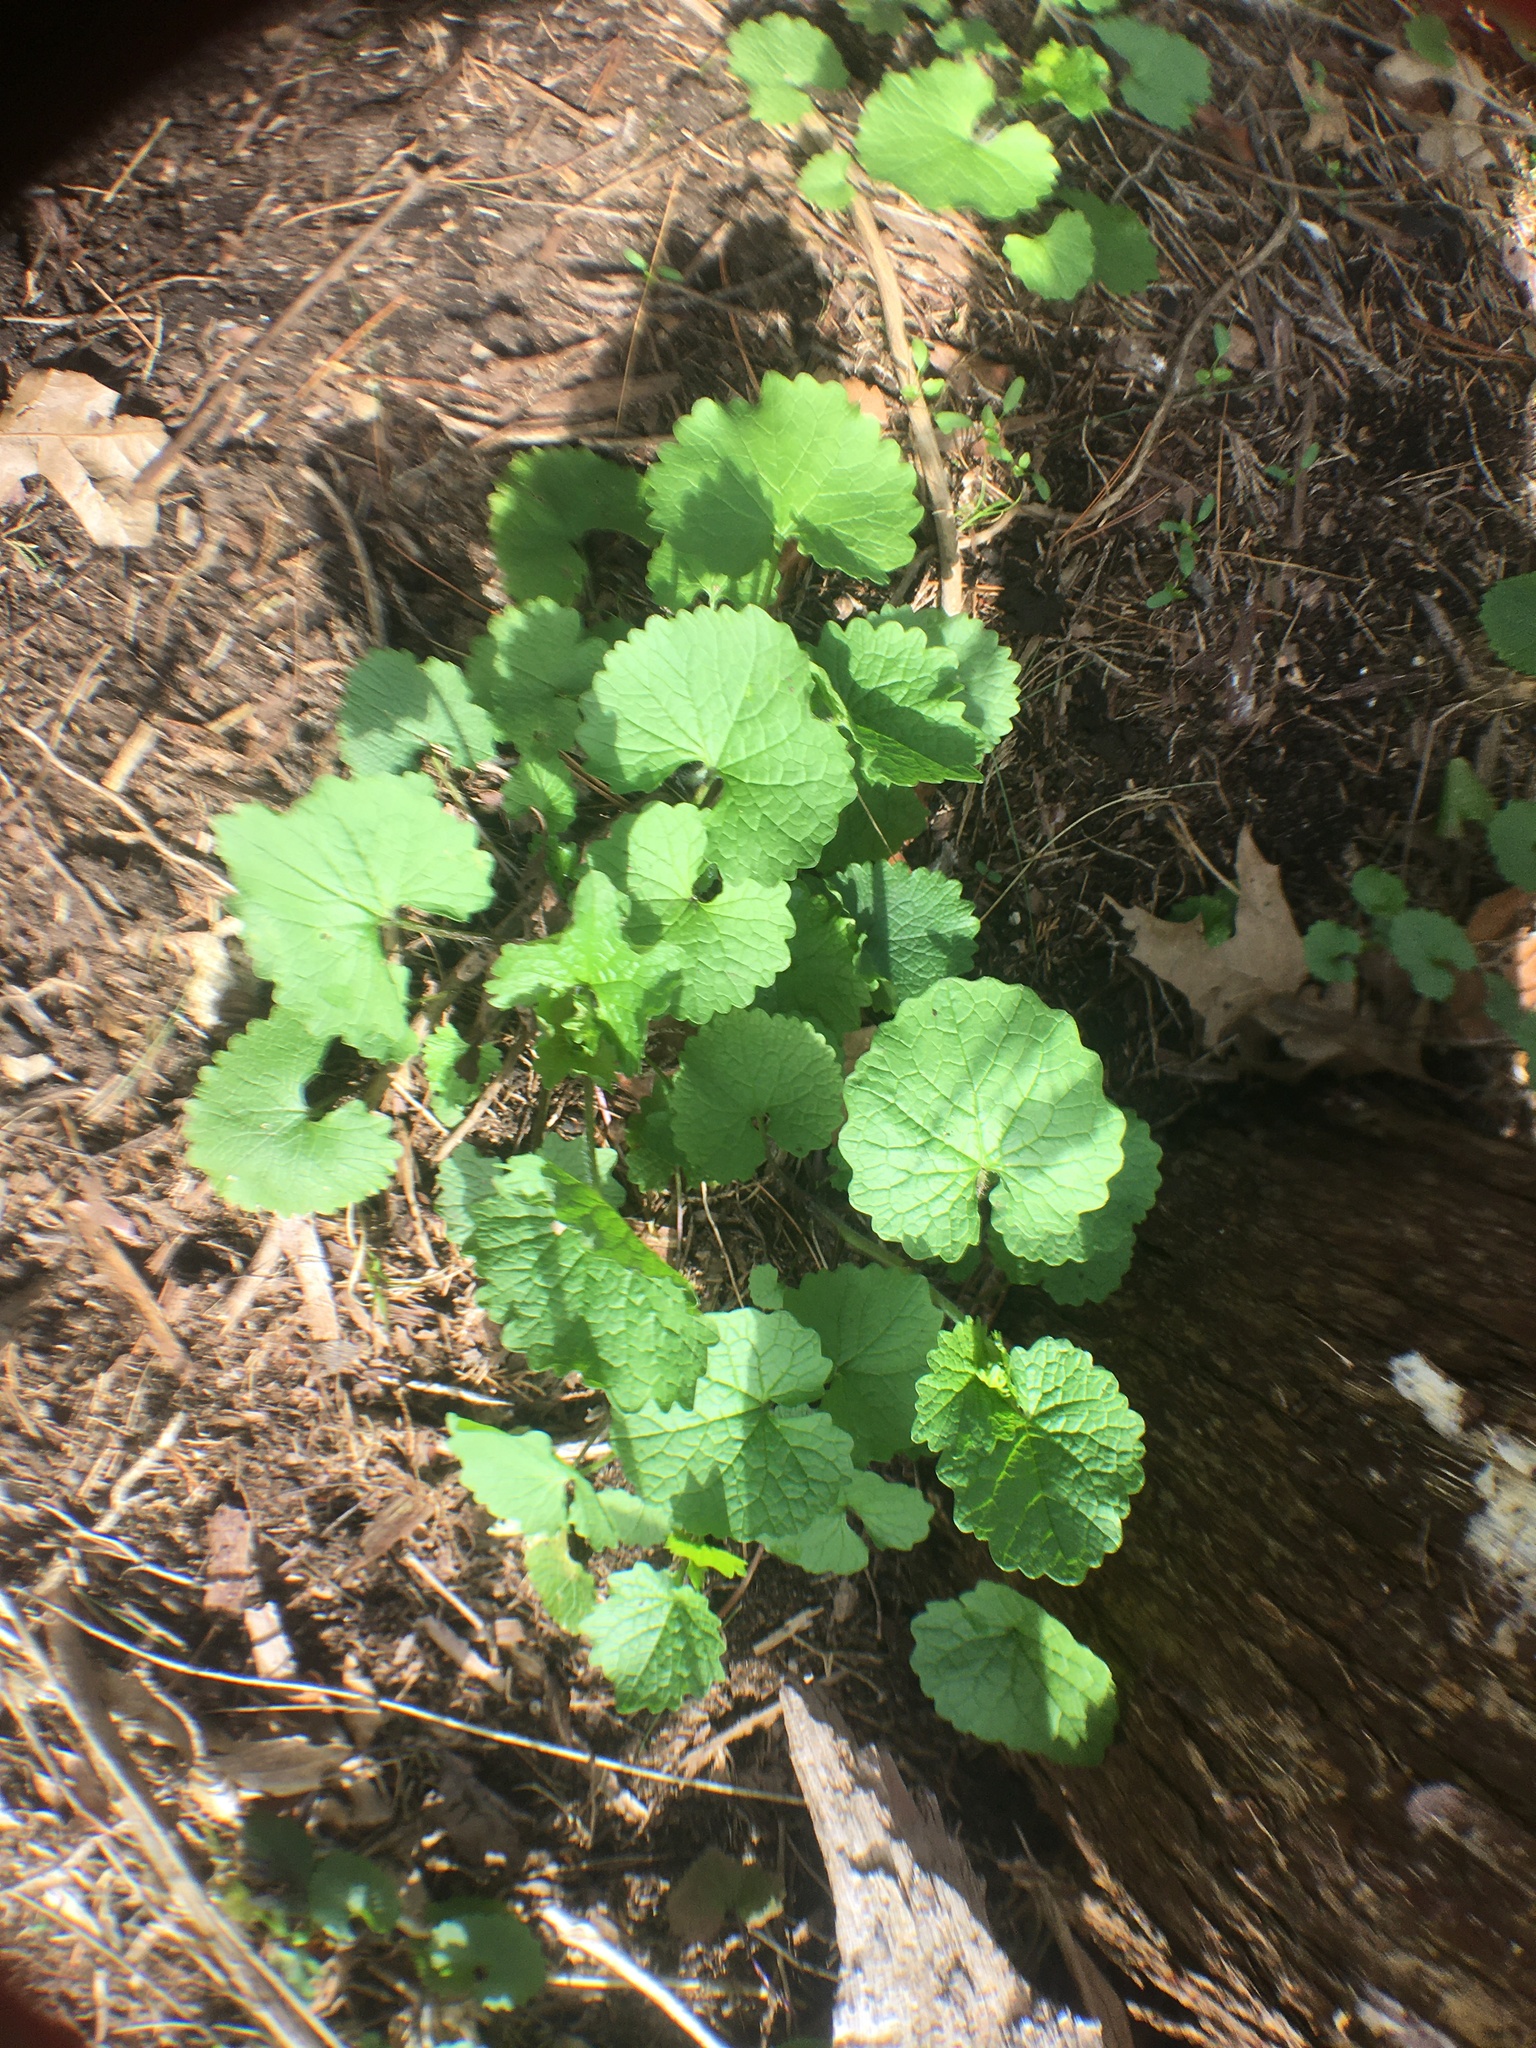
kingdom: Plantae
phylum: Tracheophyta
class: Magnoliopsida
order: Brassicales
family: Brassicaceae
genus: Alliaria
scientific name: Alliaria petiolata
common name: Garlic mustard
